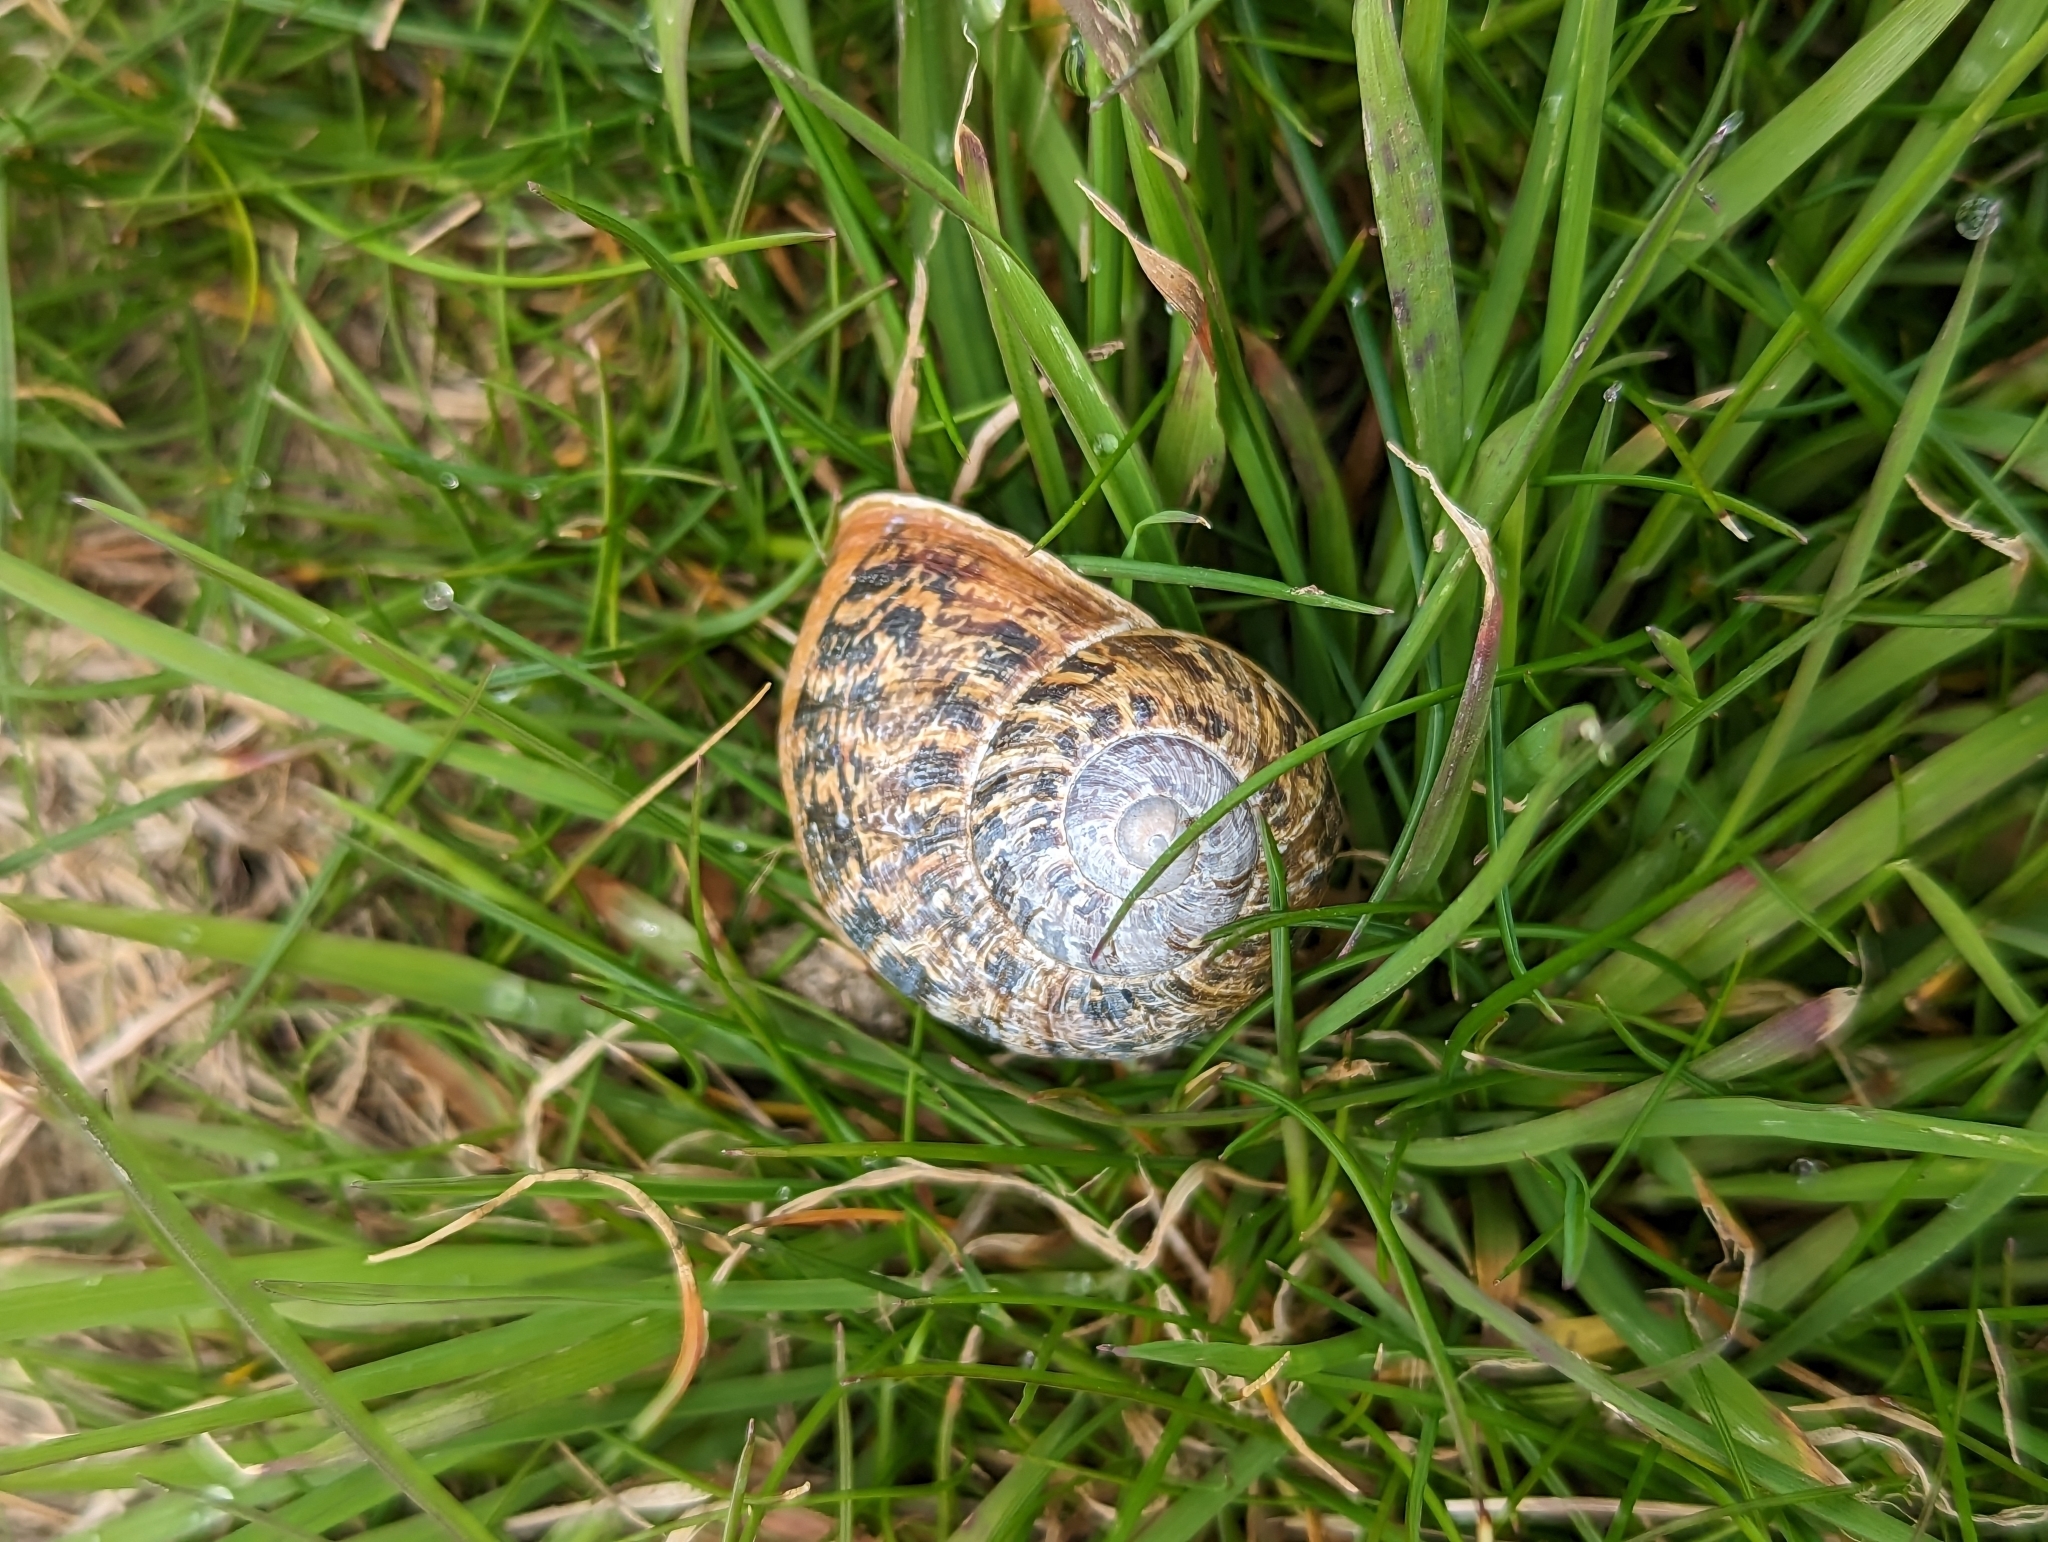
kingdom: Animalia
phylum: Mollusca
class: Gastropoda
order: Stylommatophora
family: Helicidae
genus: Cornu
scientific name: Cornu aspersum
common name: Brown garden snail
